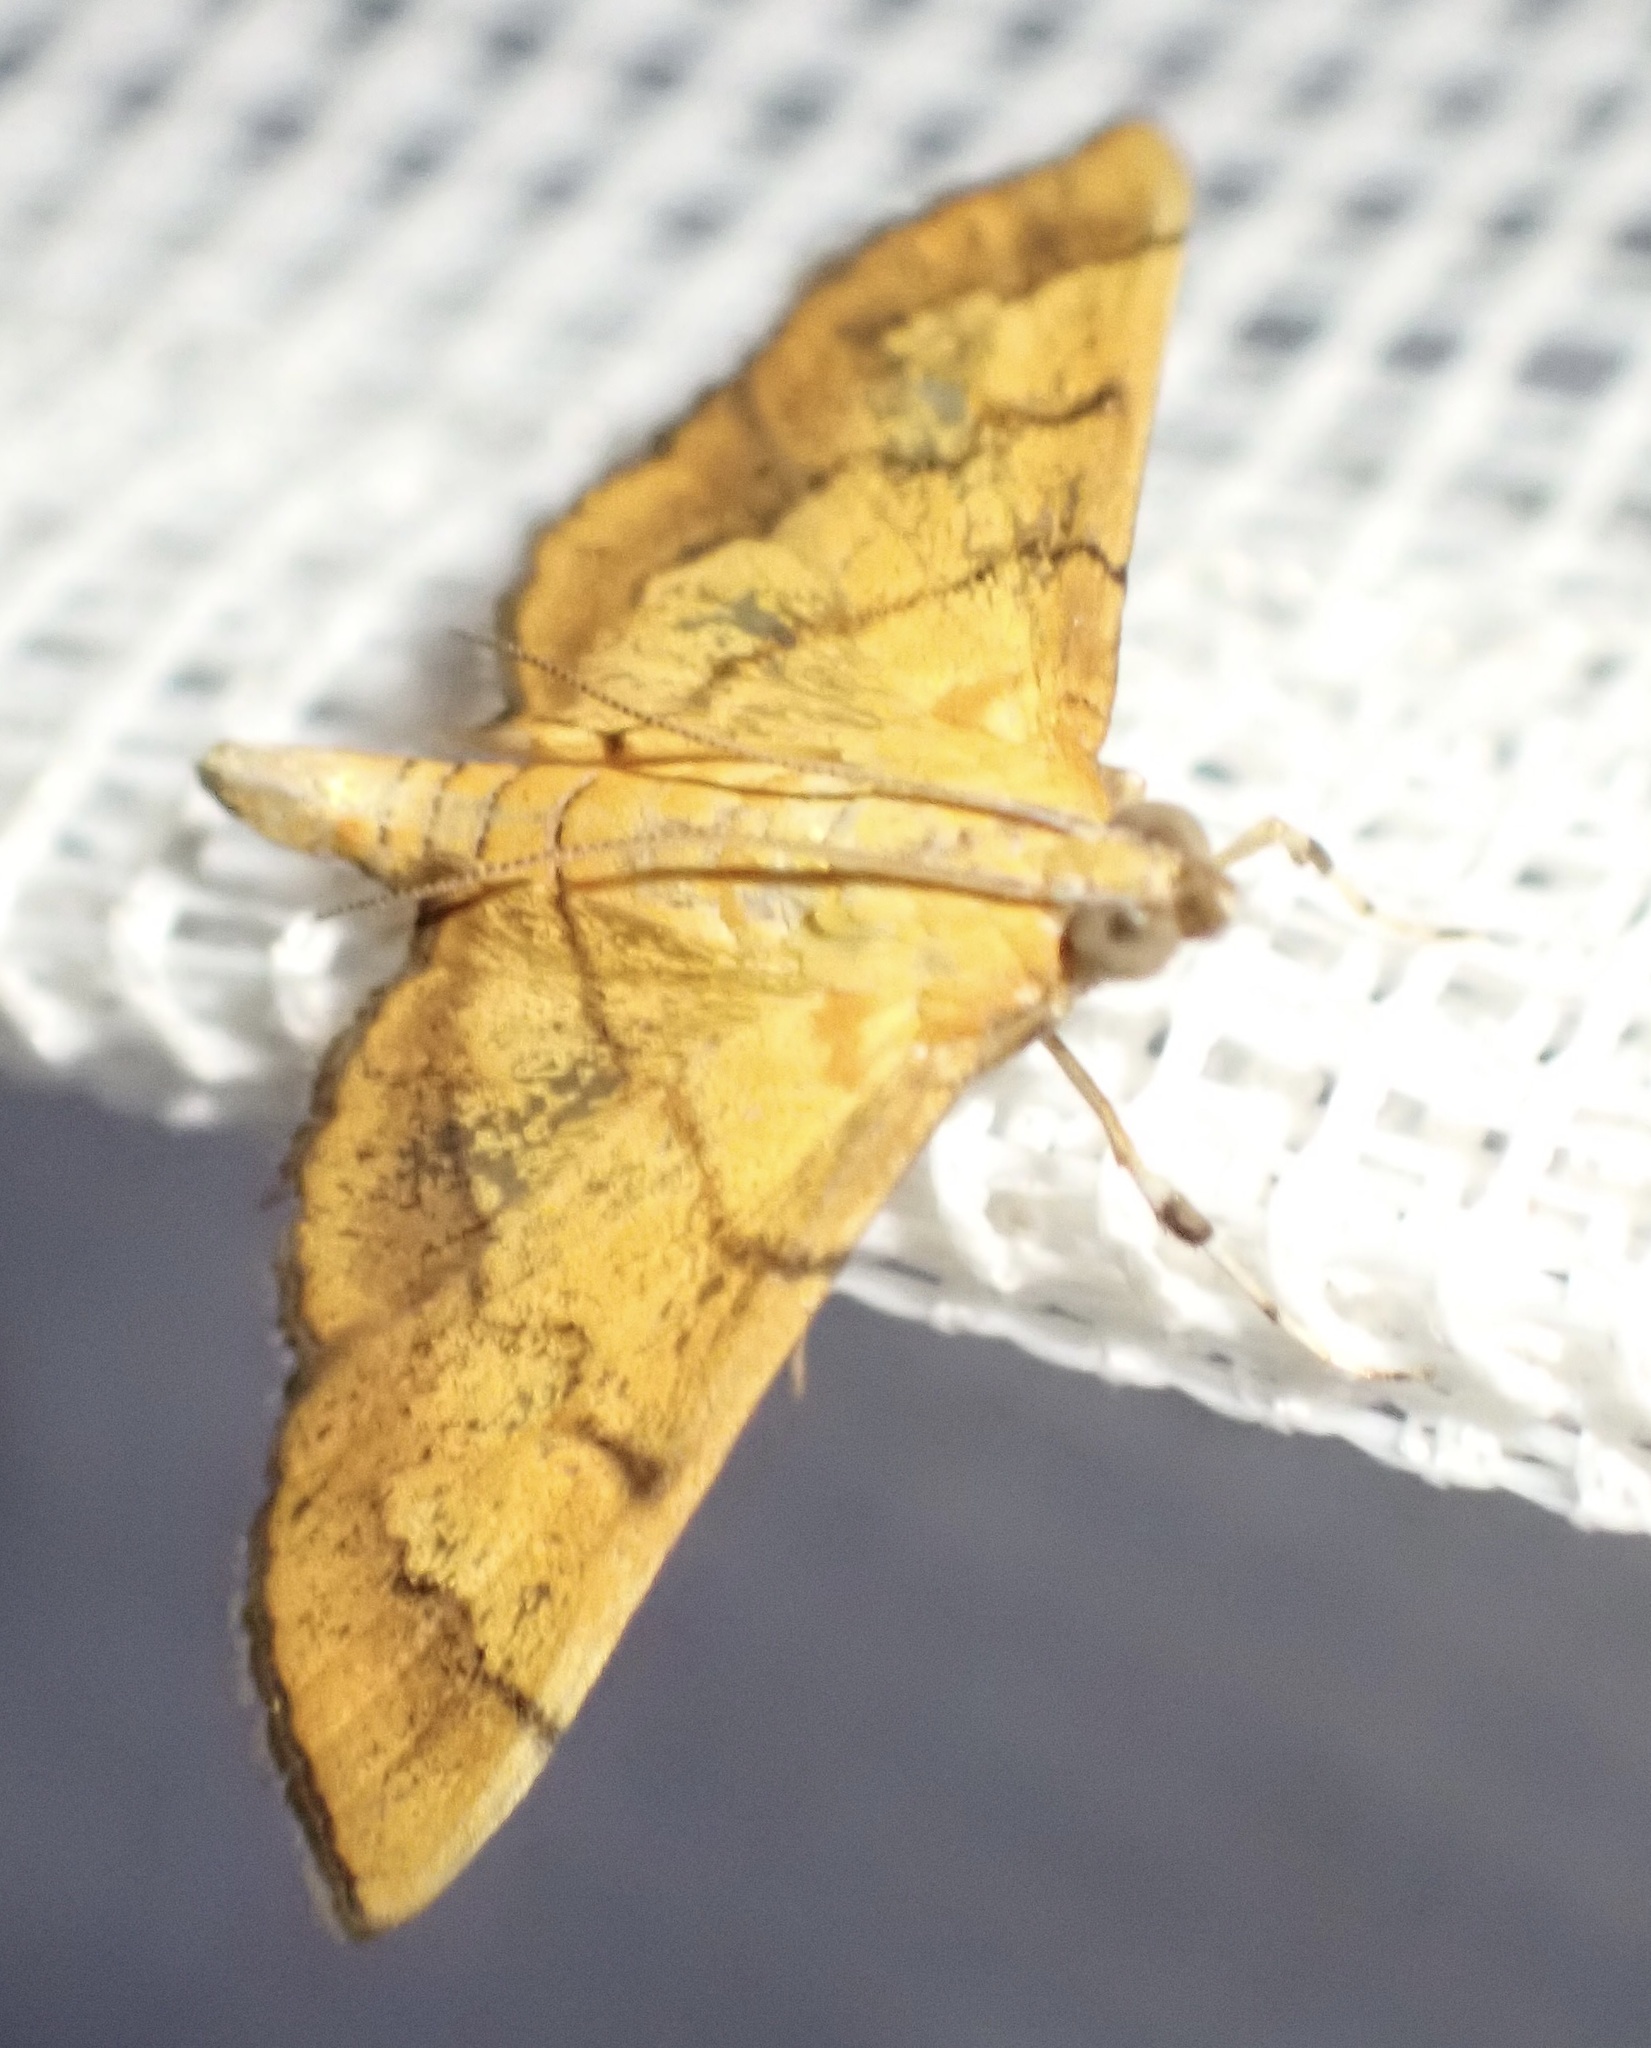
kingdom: Animalia
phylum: Arthropoda
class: Insecta
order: Lepidoptera
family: Crambidae
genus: Orphanostigma
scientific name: Orphanostigma abruptalis
